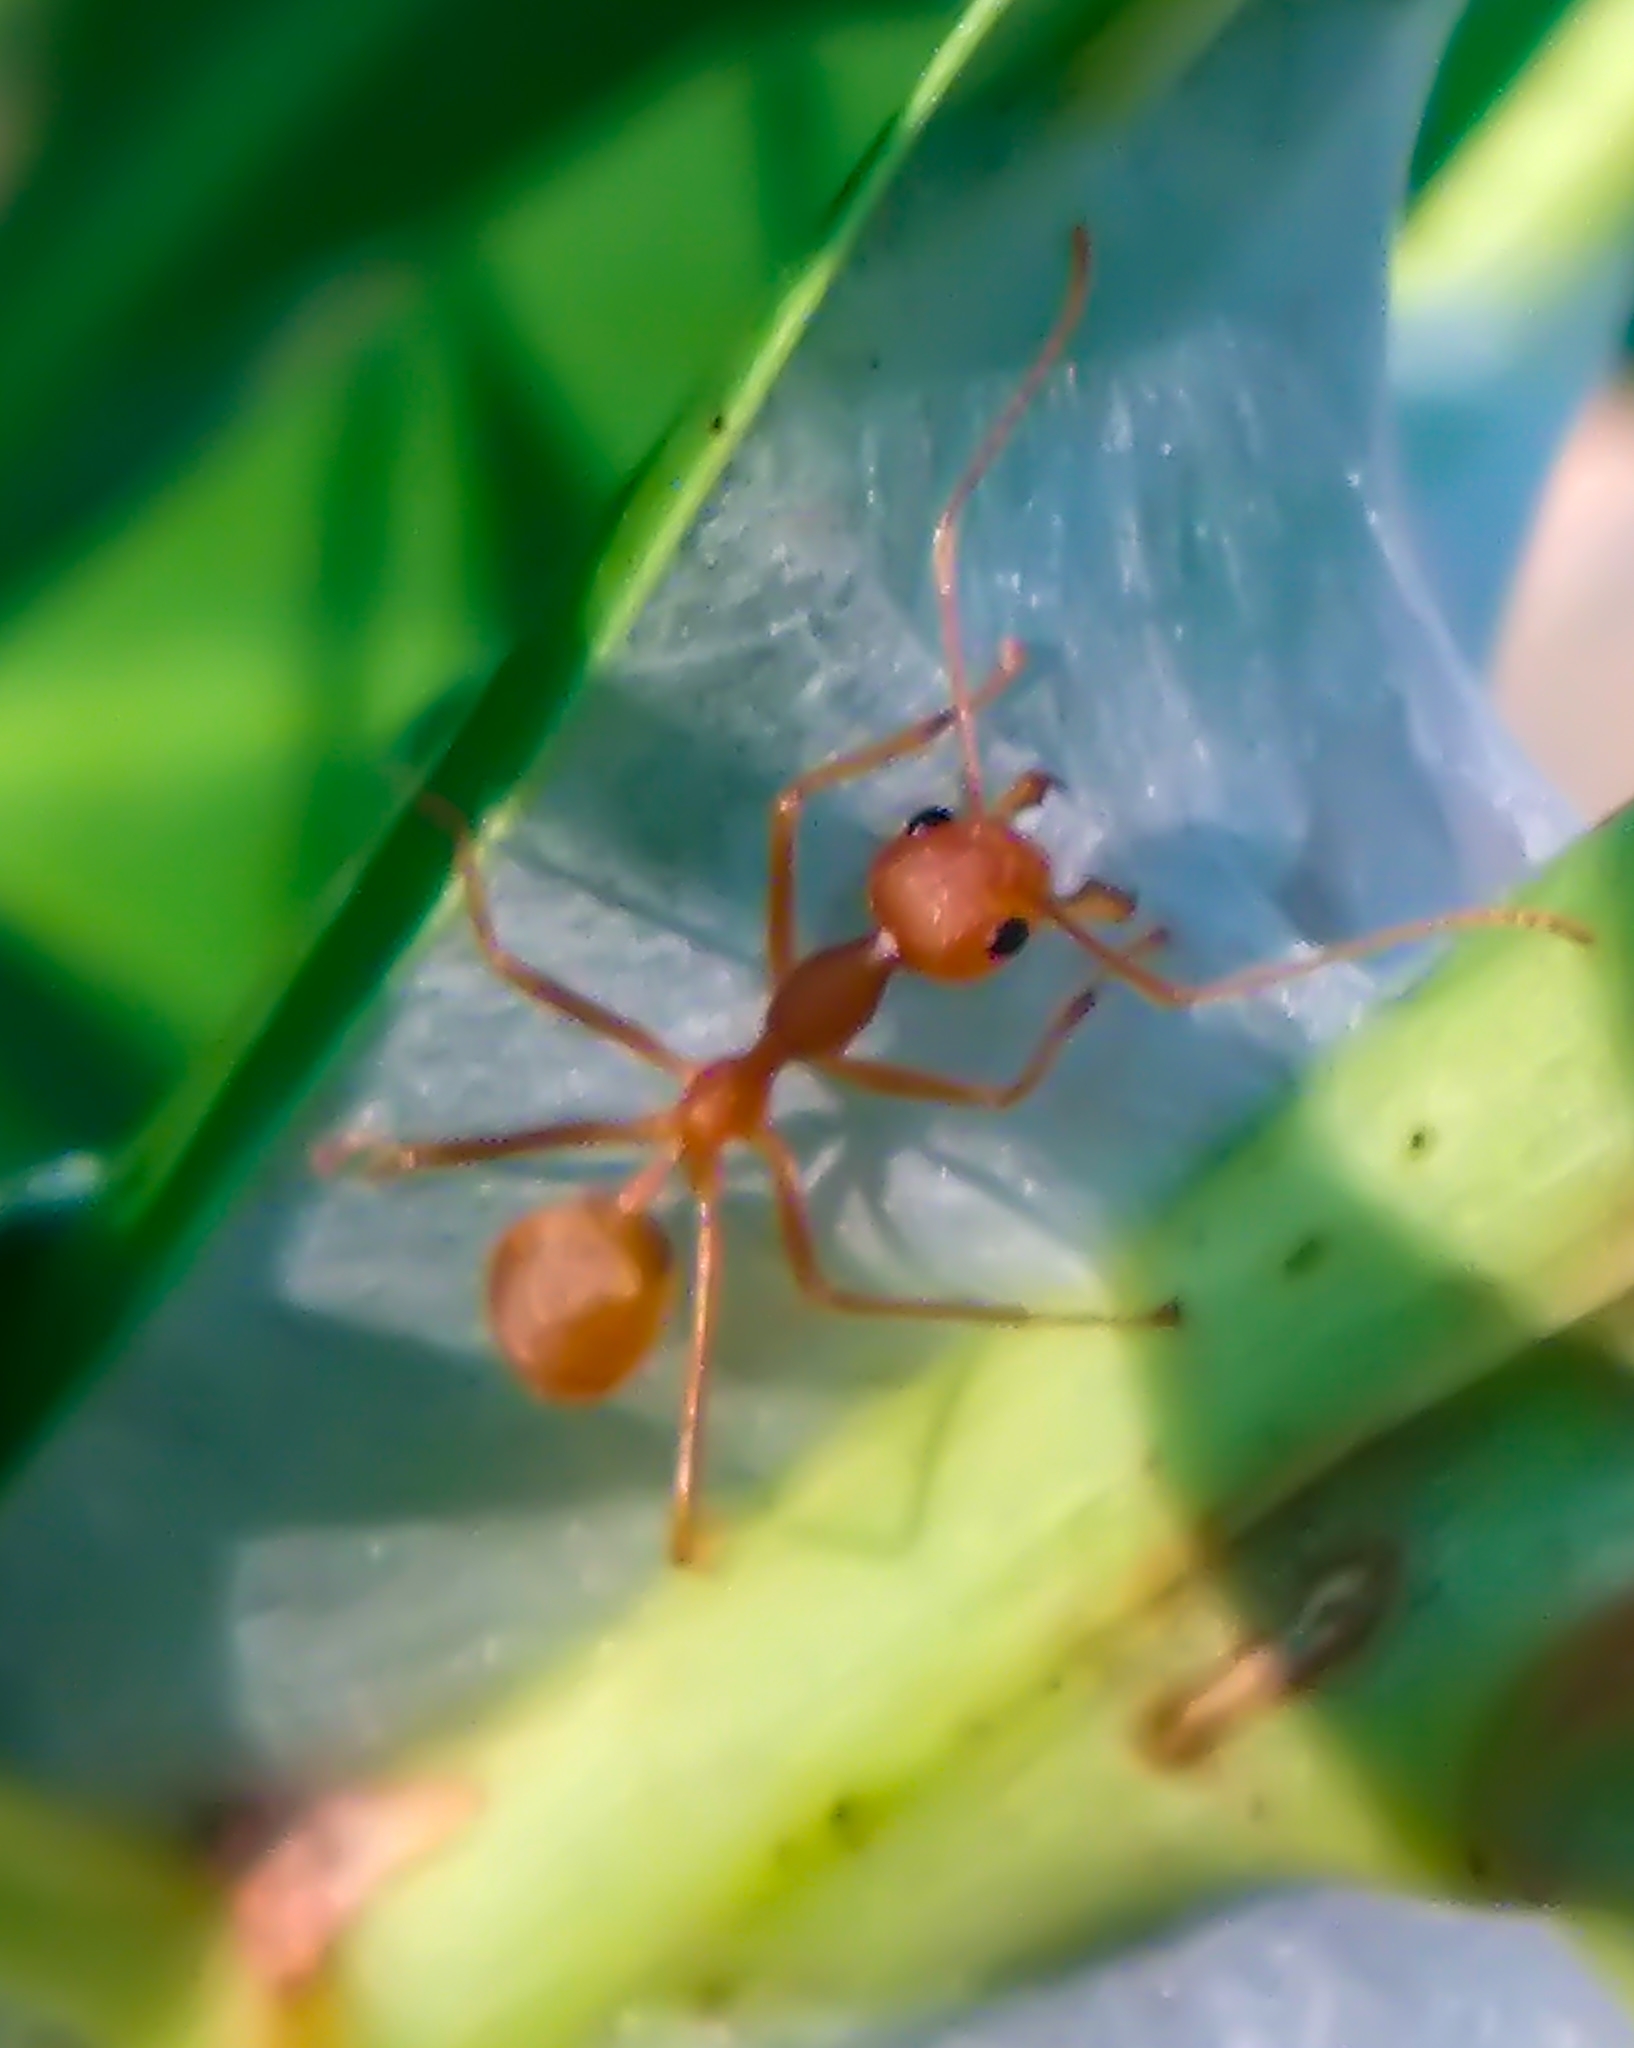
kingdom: Animalia
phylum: Arthropoda
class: Insecta
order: Hymenoptera
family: Formicidae
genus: Oecophylla
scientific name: Oecophylla smaragdina
